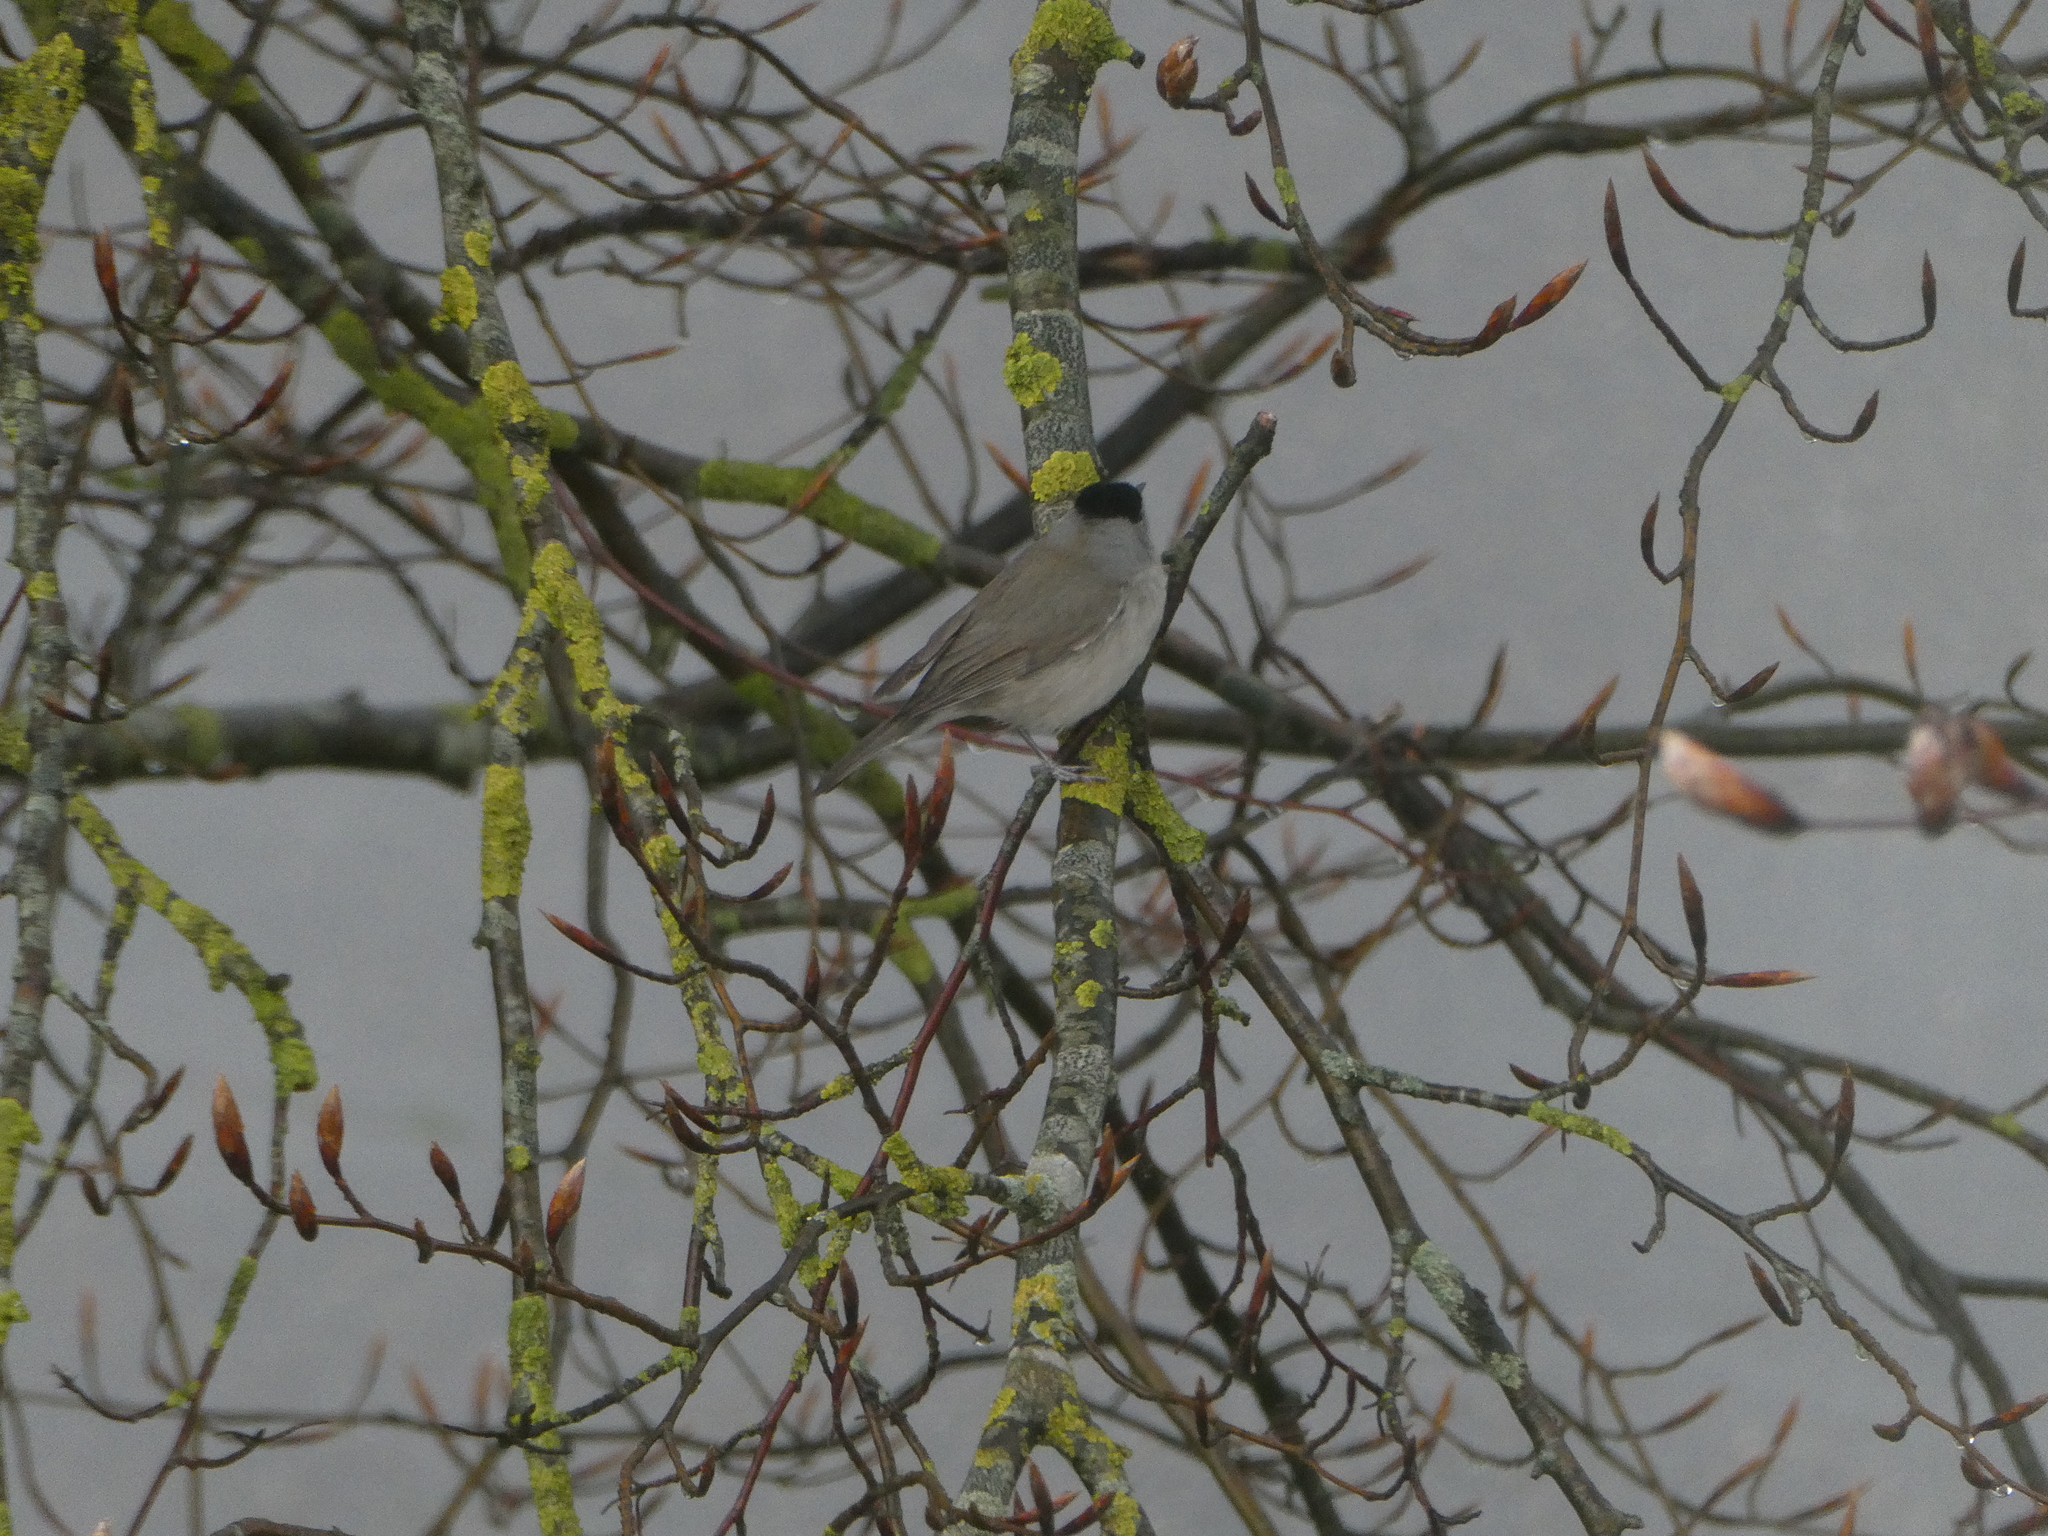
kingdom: Animalia
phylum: Chordata
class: Aves
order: Passeriformes
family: Sylviidae
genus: Sylvia
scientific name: Sylvia atricapilla
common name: Eurasian blackcap
